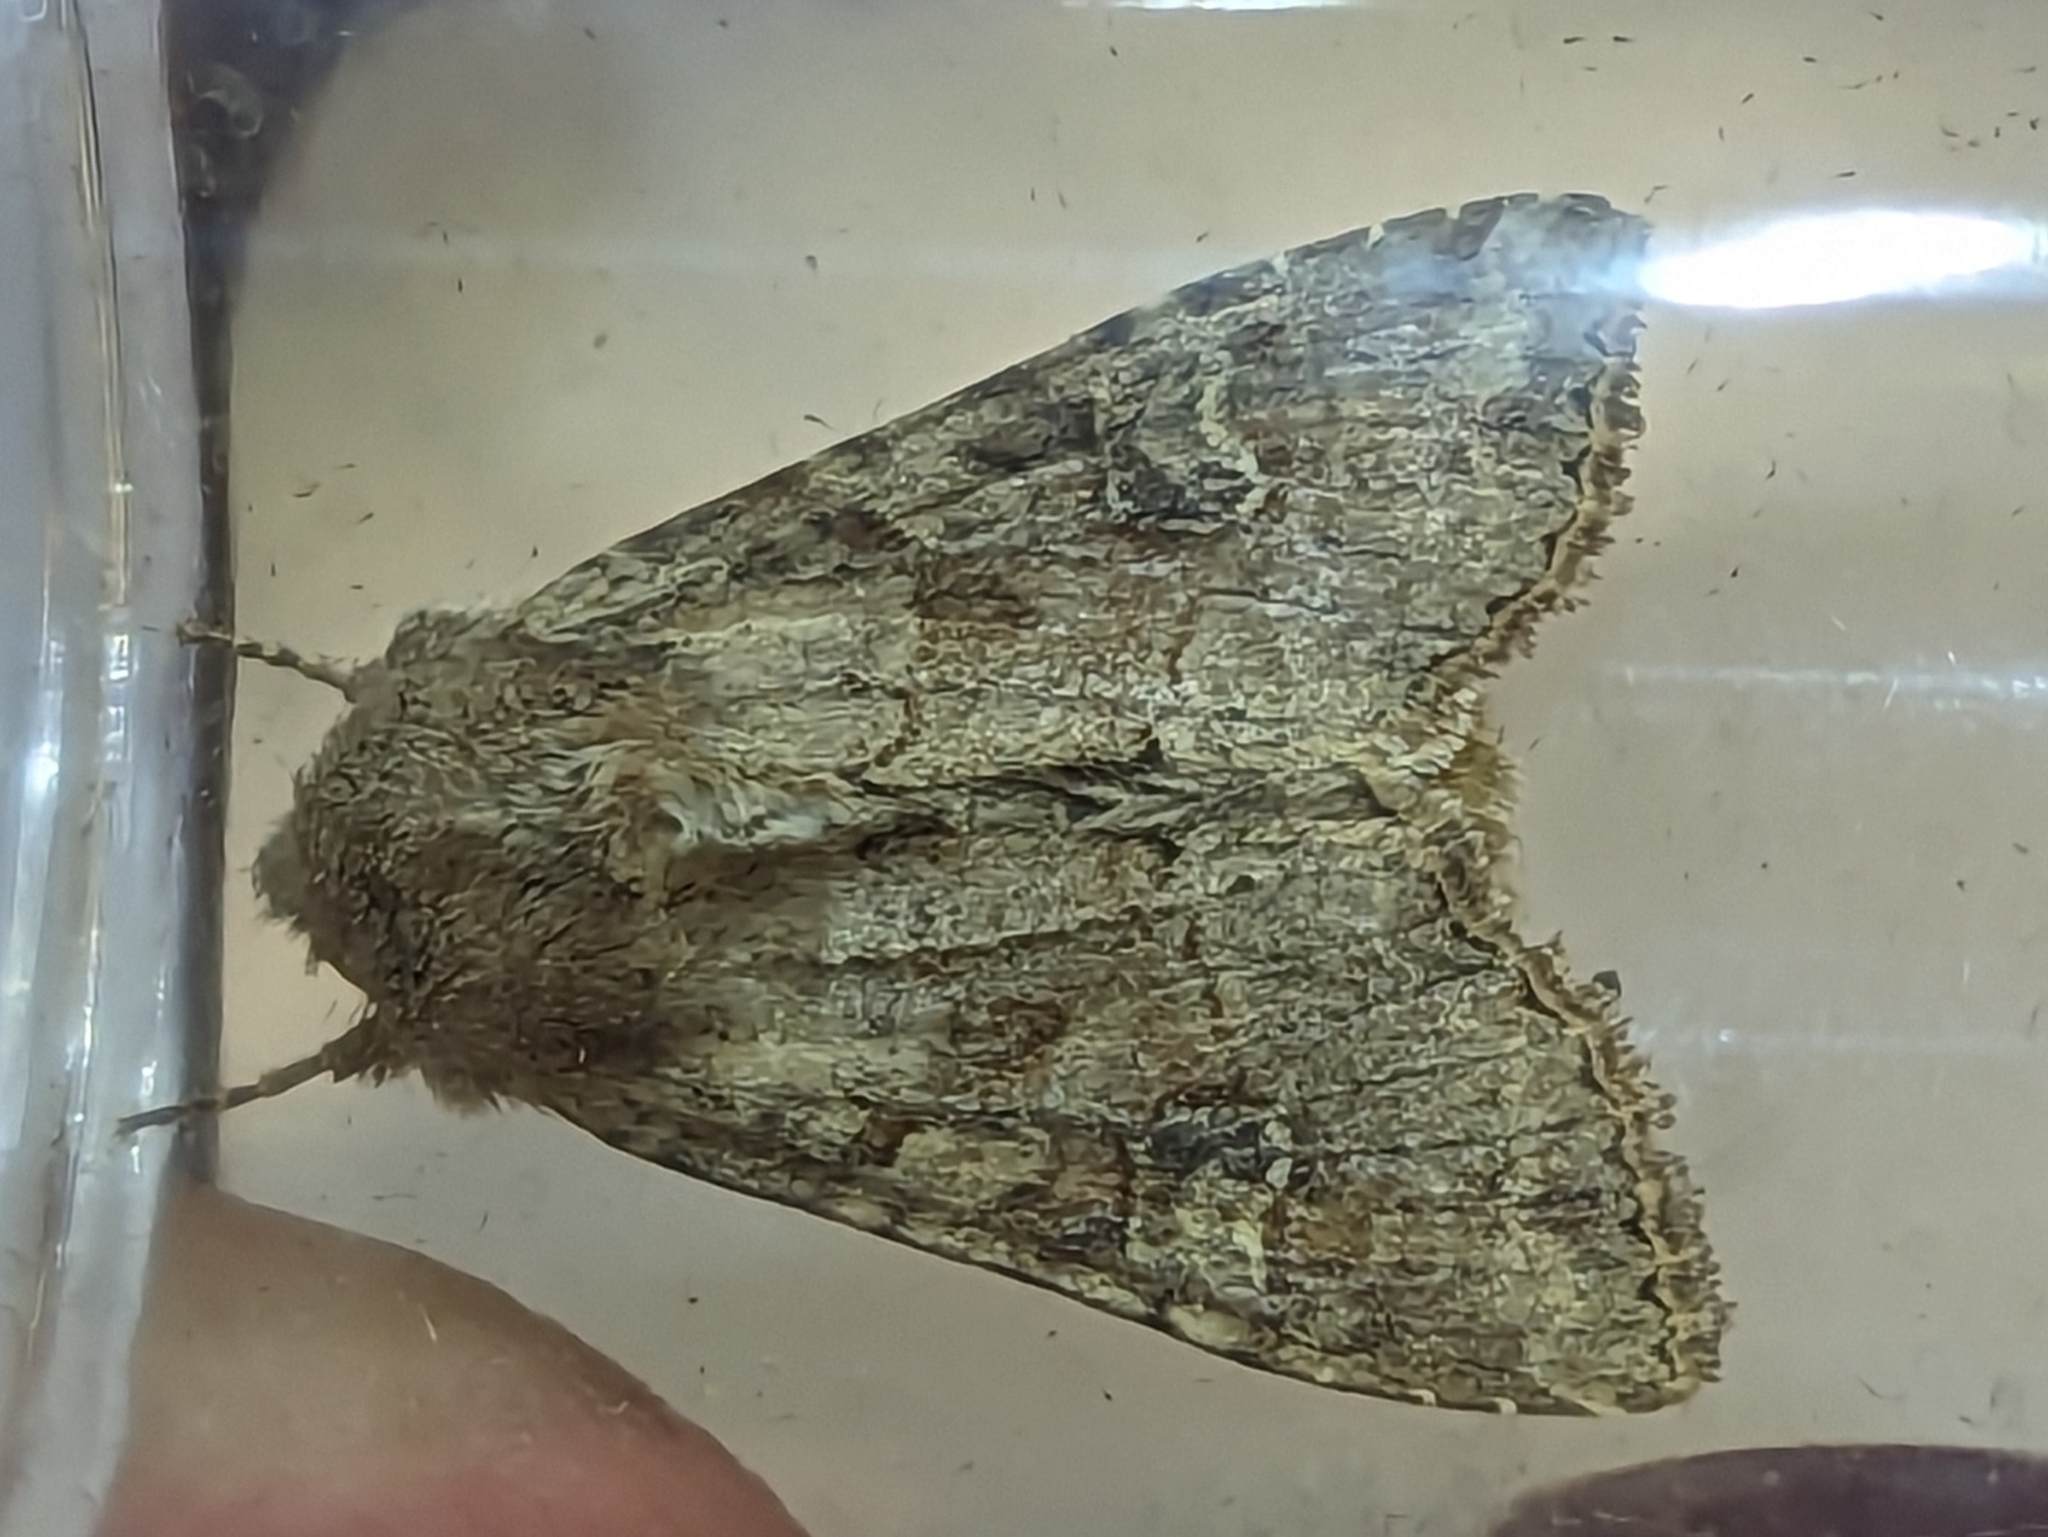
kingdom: Animalia
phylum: Arthropoda
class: Insecta
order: Lepidoptera
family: Noctuidae
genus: Apamea
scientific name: Apamea sordens
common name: Rustic shoulder-knot
